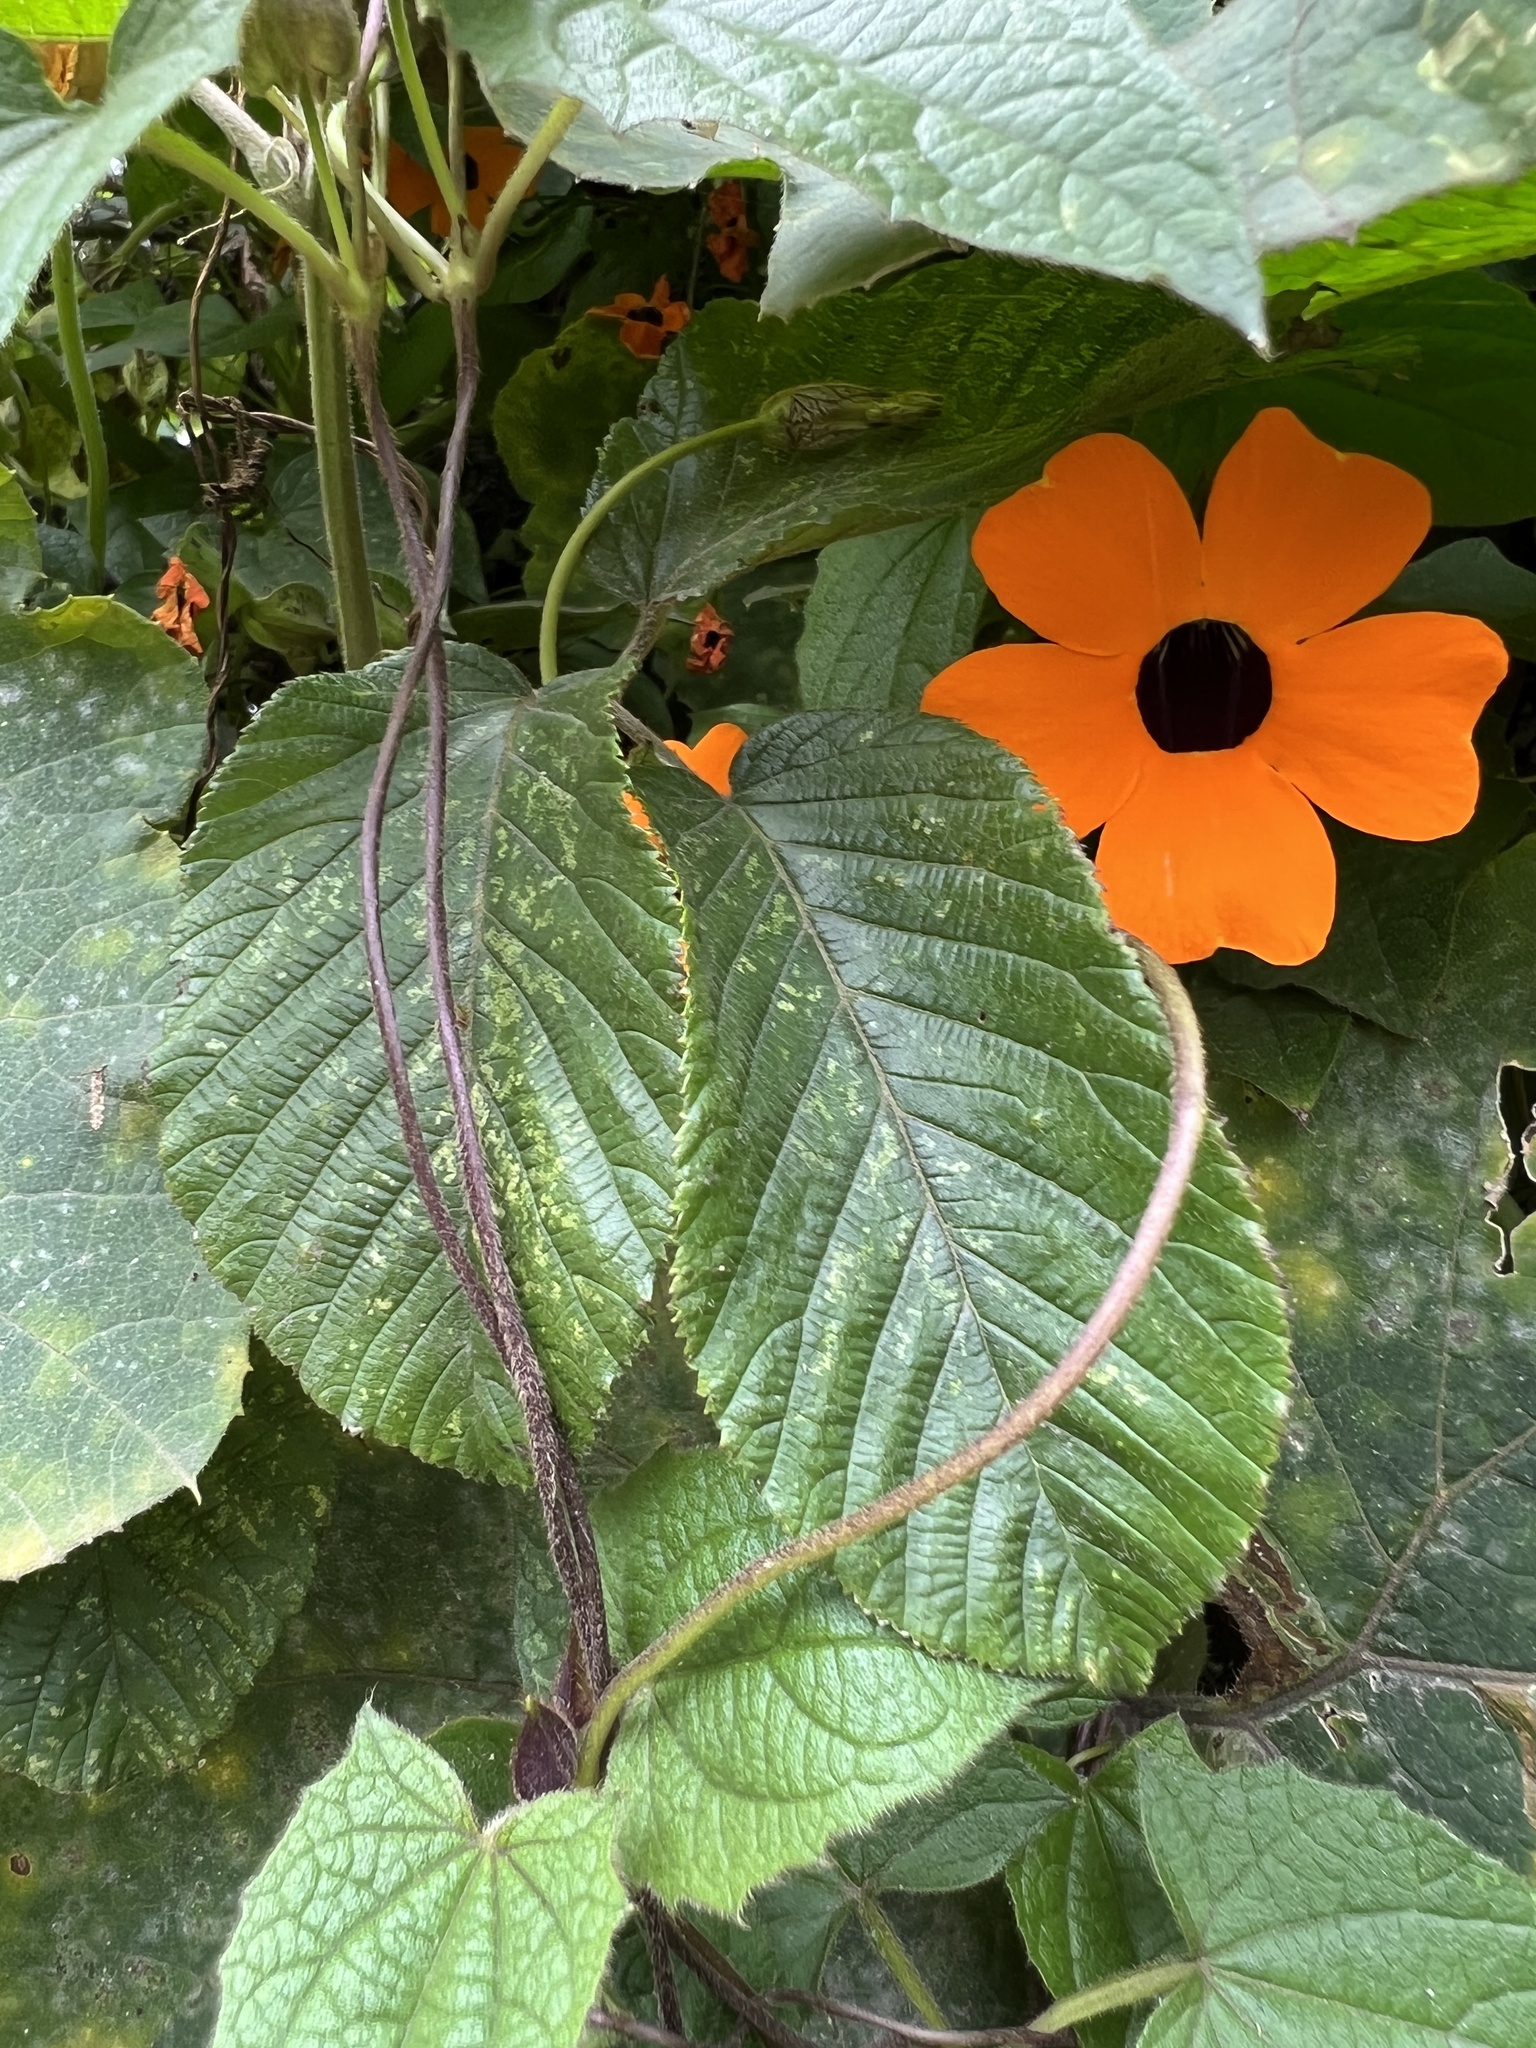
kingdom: Plantae
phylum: Tracheophyta
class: Magnoliopsida
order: Lamiales
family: Acanthaceae
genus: Thunbergia
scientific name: Thunbergia alata
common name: Blackeyed susan vine
